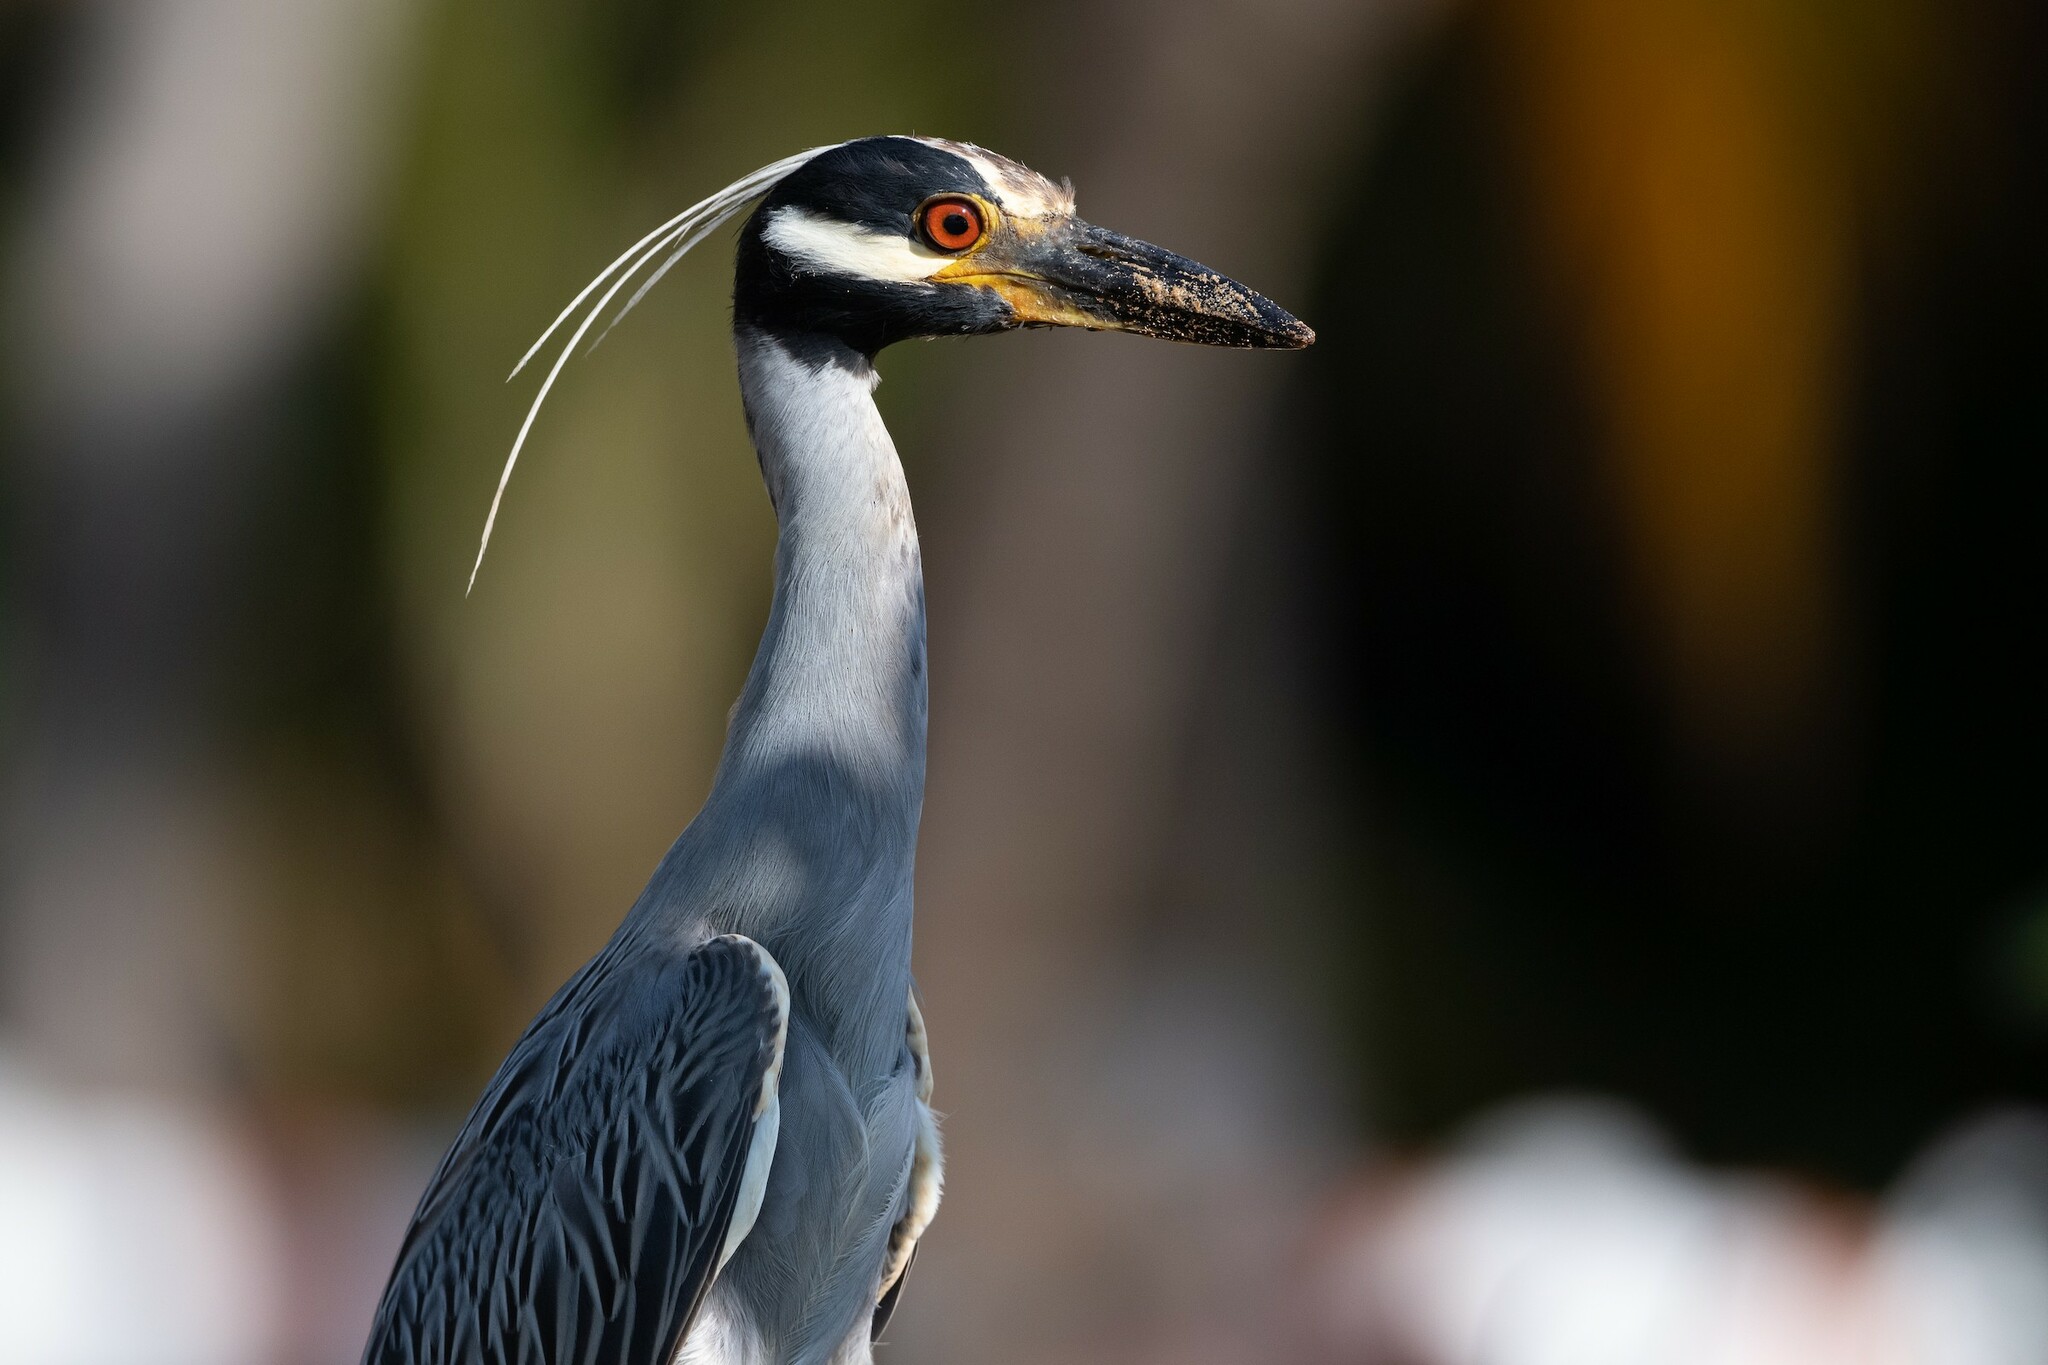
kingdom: Animalia
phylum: Chordata
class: Aves
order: Pelecaniformes
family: Ardeidae
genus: Nyctanassa
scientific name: Nyctanassa violacea
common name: Yellow-crowned night heron
